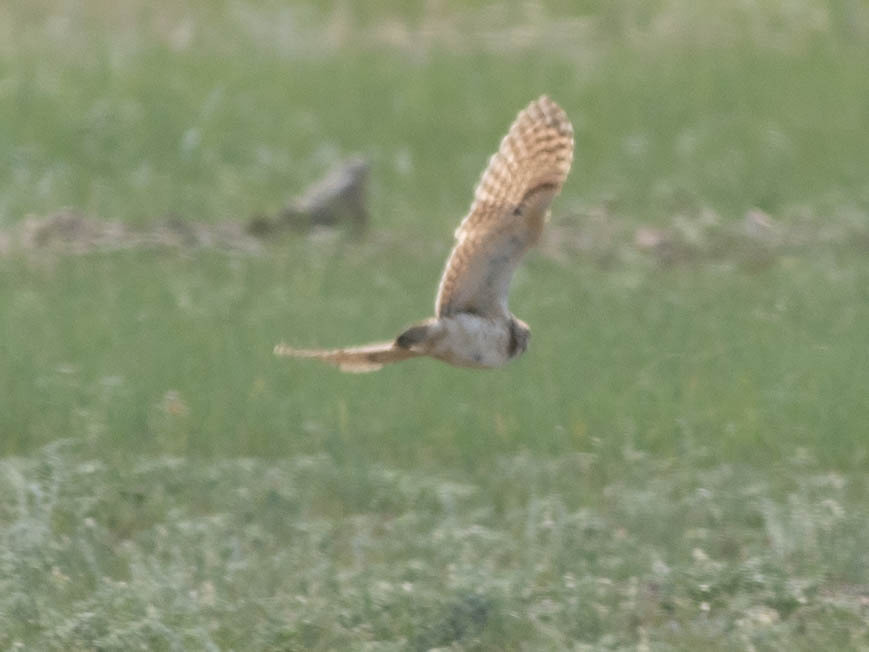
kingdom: Animalia
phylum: Chordata
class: Aves
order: Strigiformes
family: Strigidae
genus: Athene
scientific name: Athene cunicularia
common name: Burrowing owl
